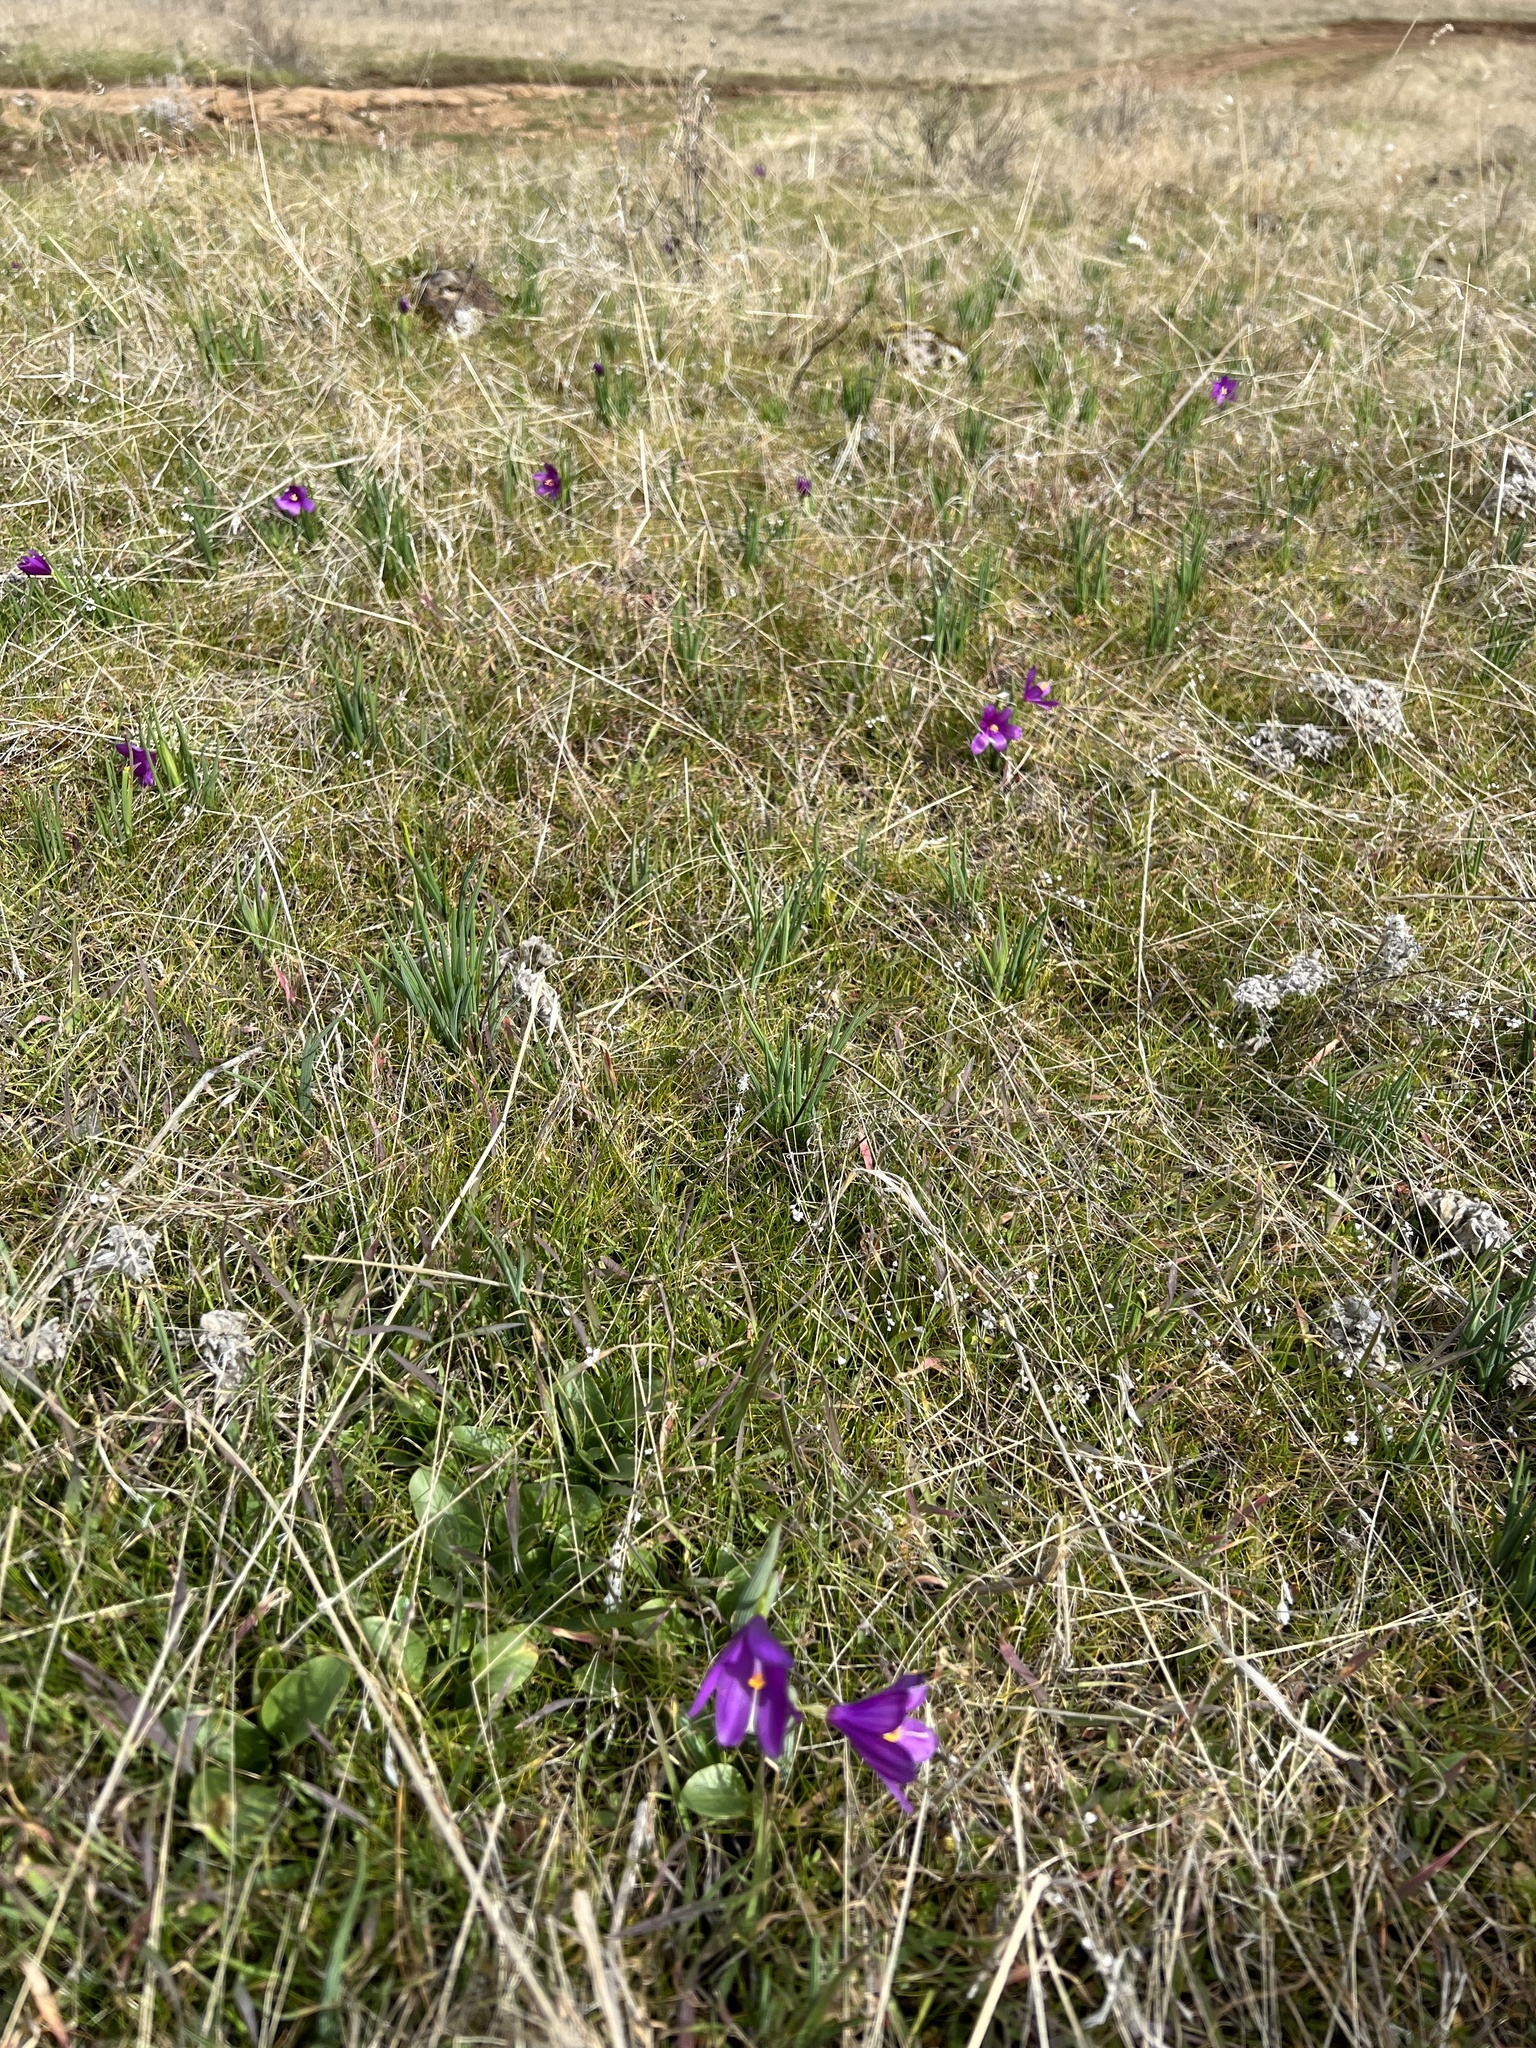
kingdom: Plantae
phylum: Tracheophyta
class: Liliopsida
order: Asparagales
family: Iridaceae
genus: Olsynium
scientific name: Olsynium douglasii
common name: Douglas' grasswidow
